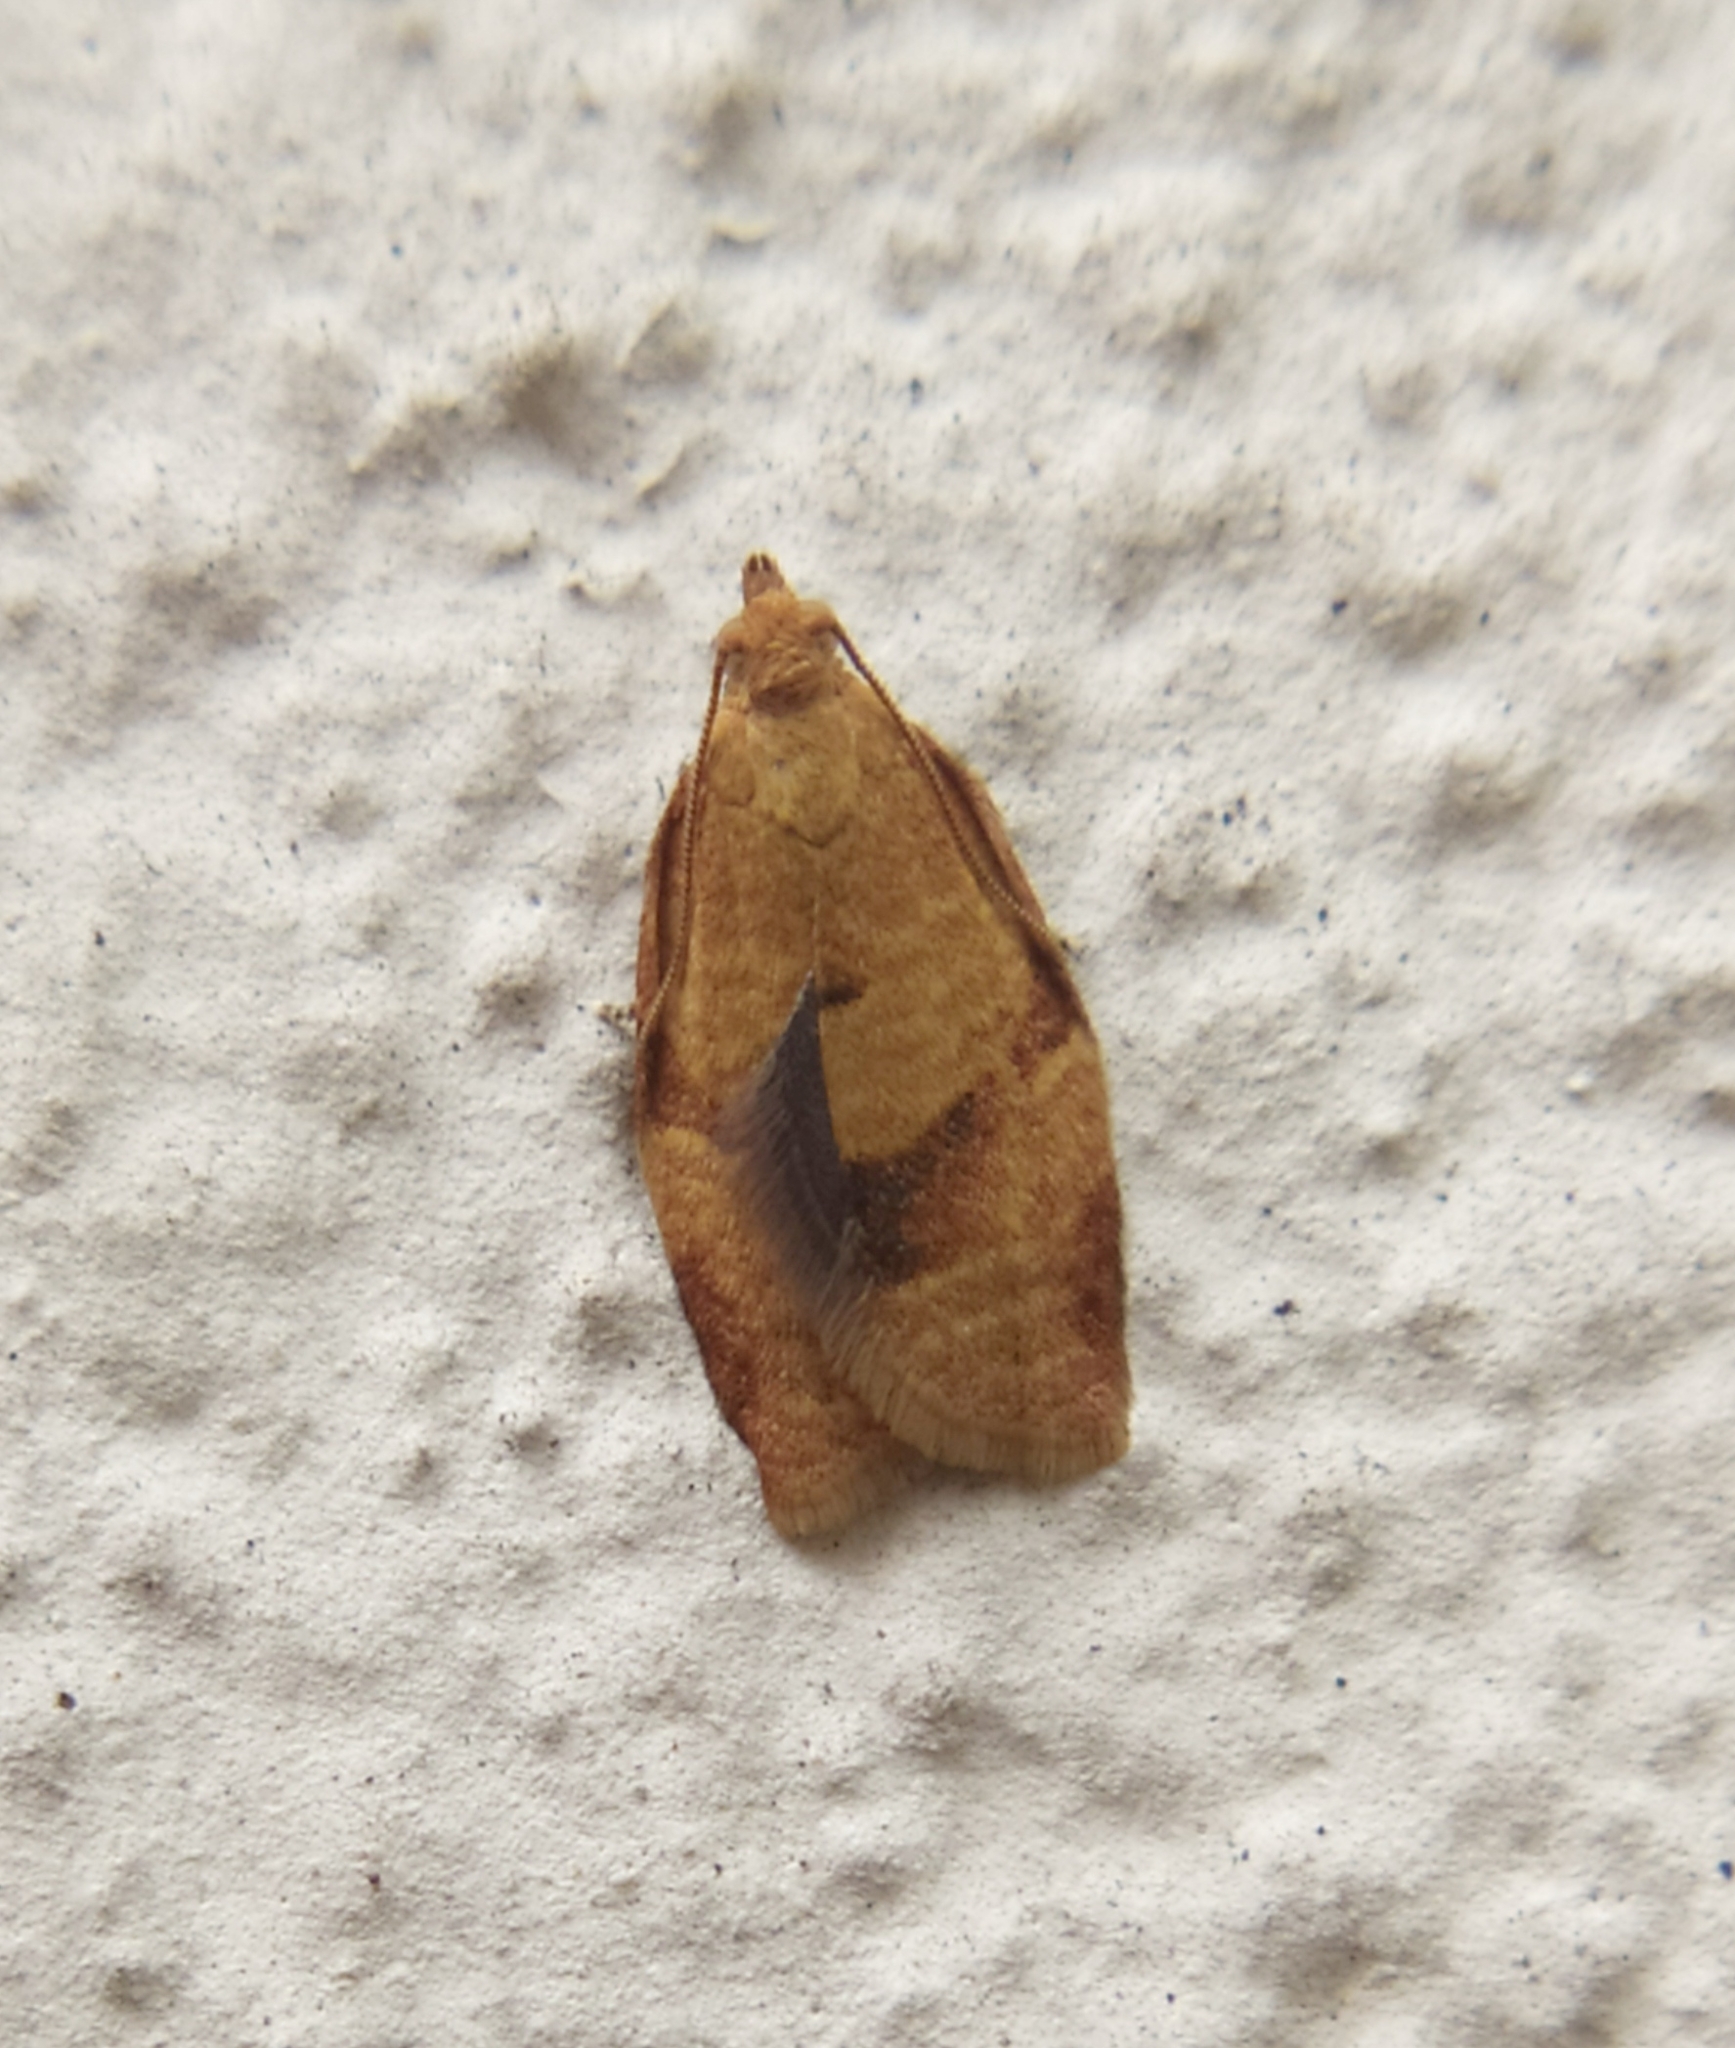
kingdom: Animalia
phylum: Arthropoda
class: Insecta
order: Lepidoptera
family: Tortricidae
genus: Clepsis
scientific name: Clepsis consimilana
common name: Privet tortrix
